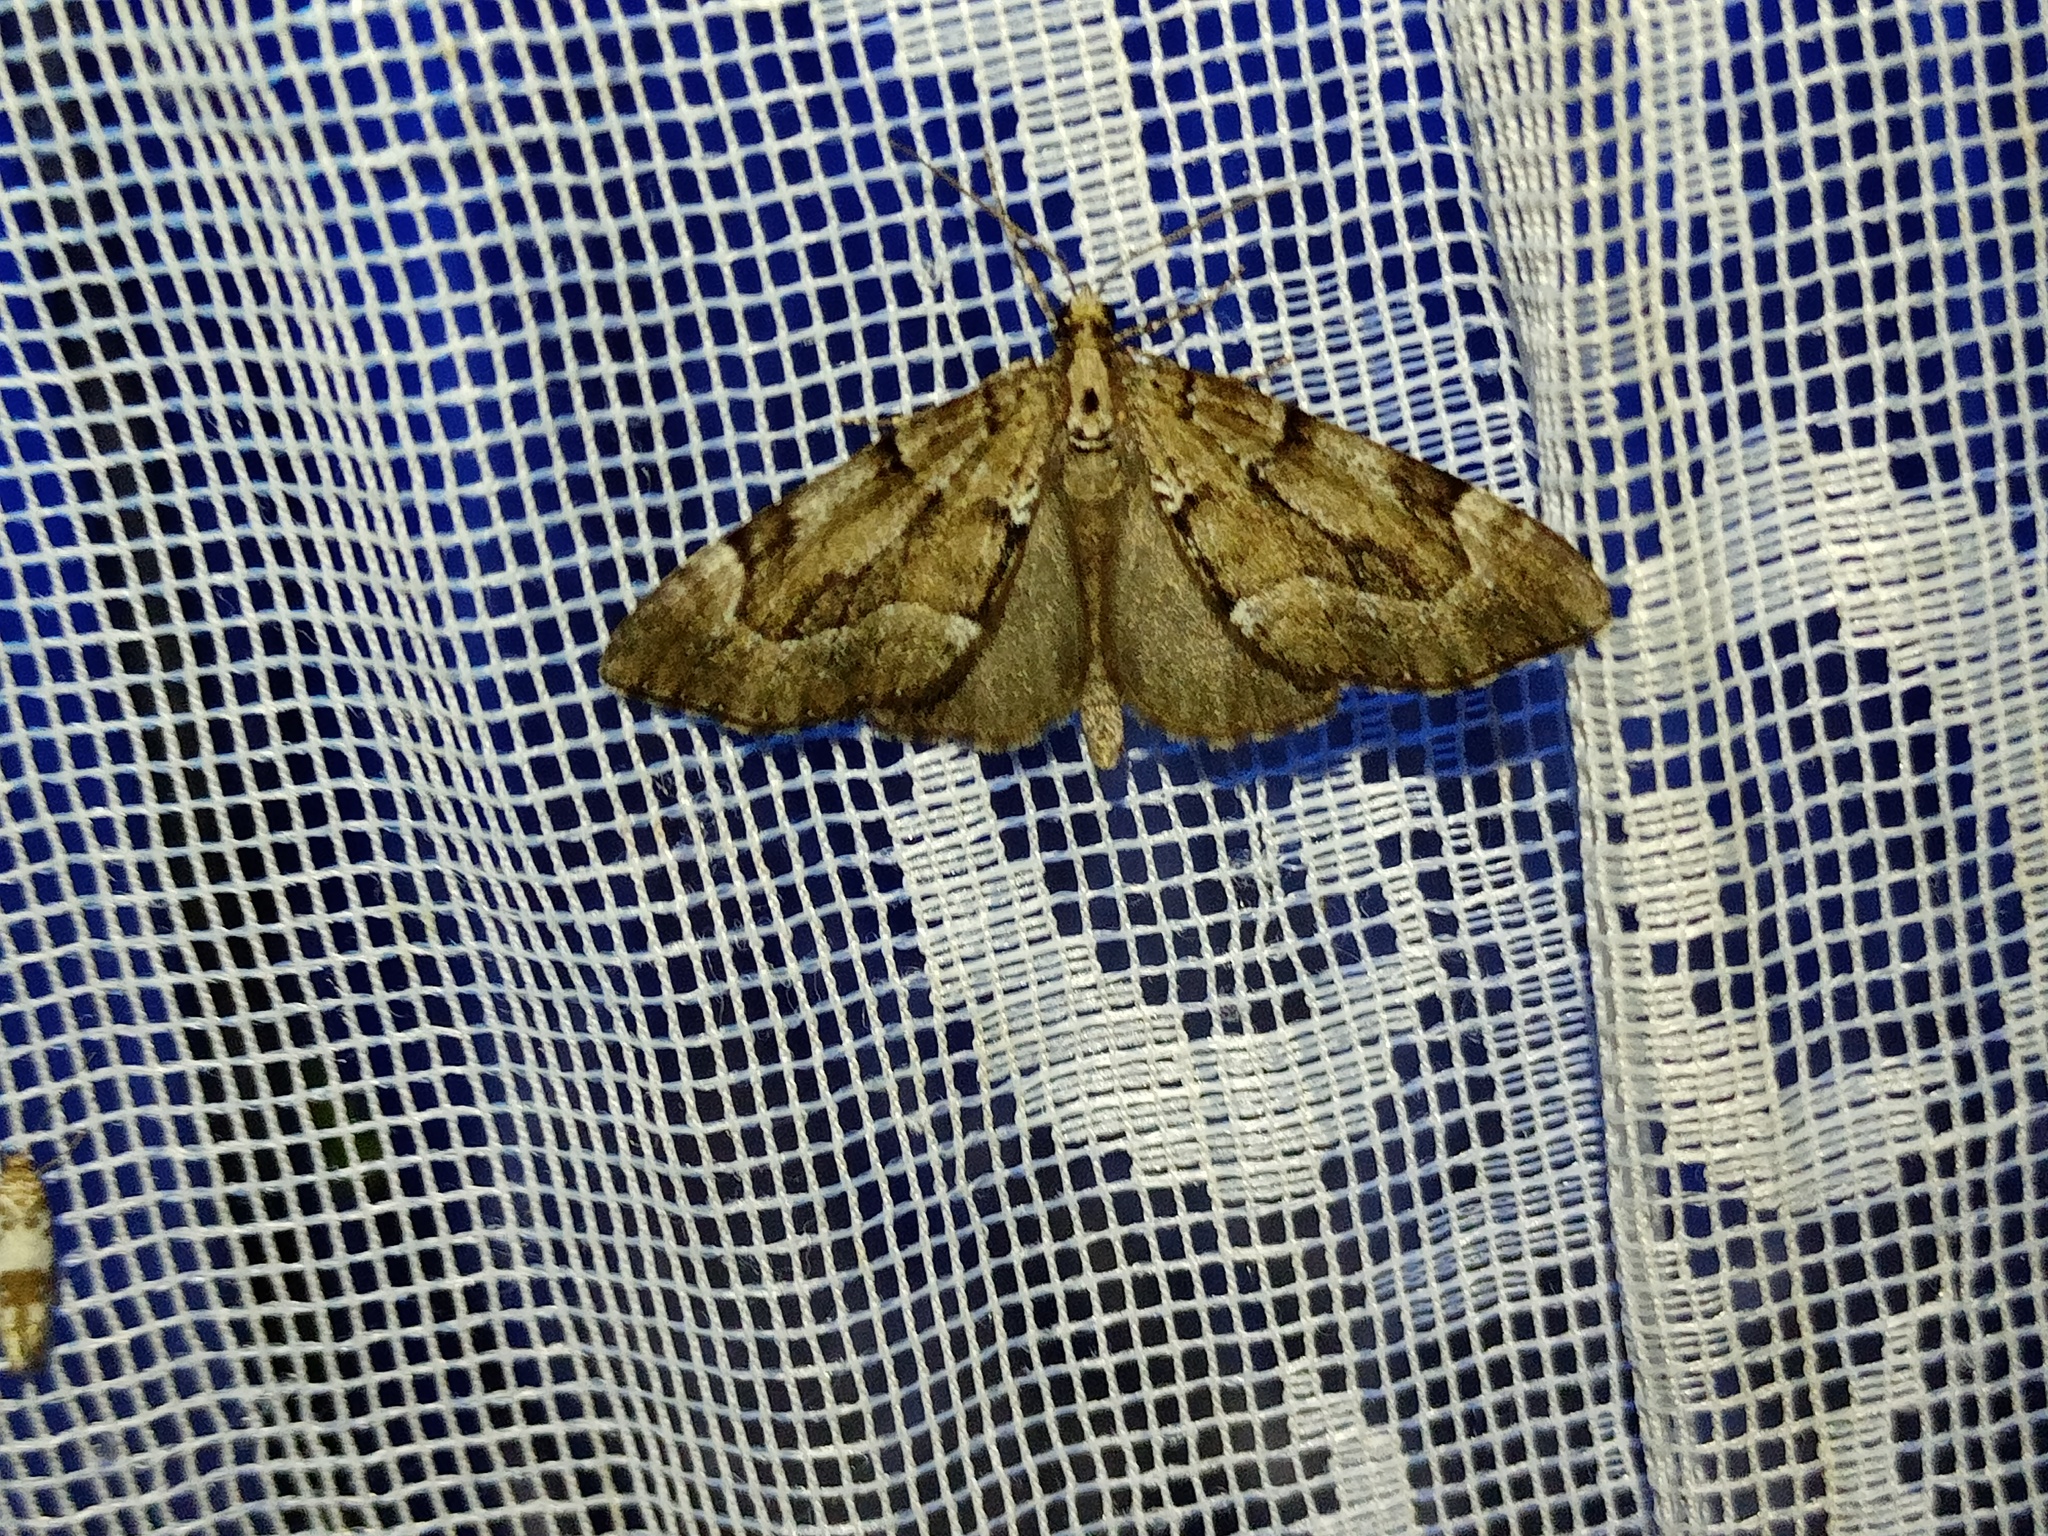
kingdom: Animalia
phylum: Arthropoda
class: Insecta
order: Lepidoptera
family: Geometridae
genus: Lobophorodes
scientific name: Lobophorodes
